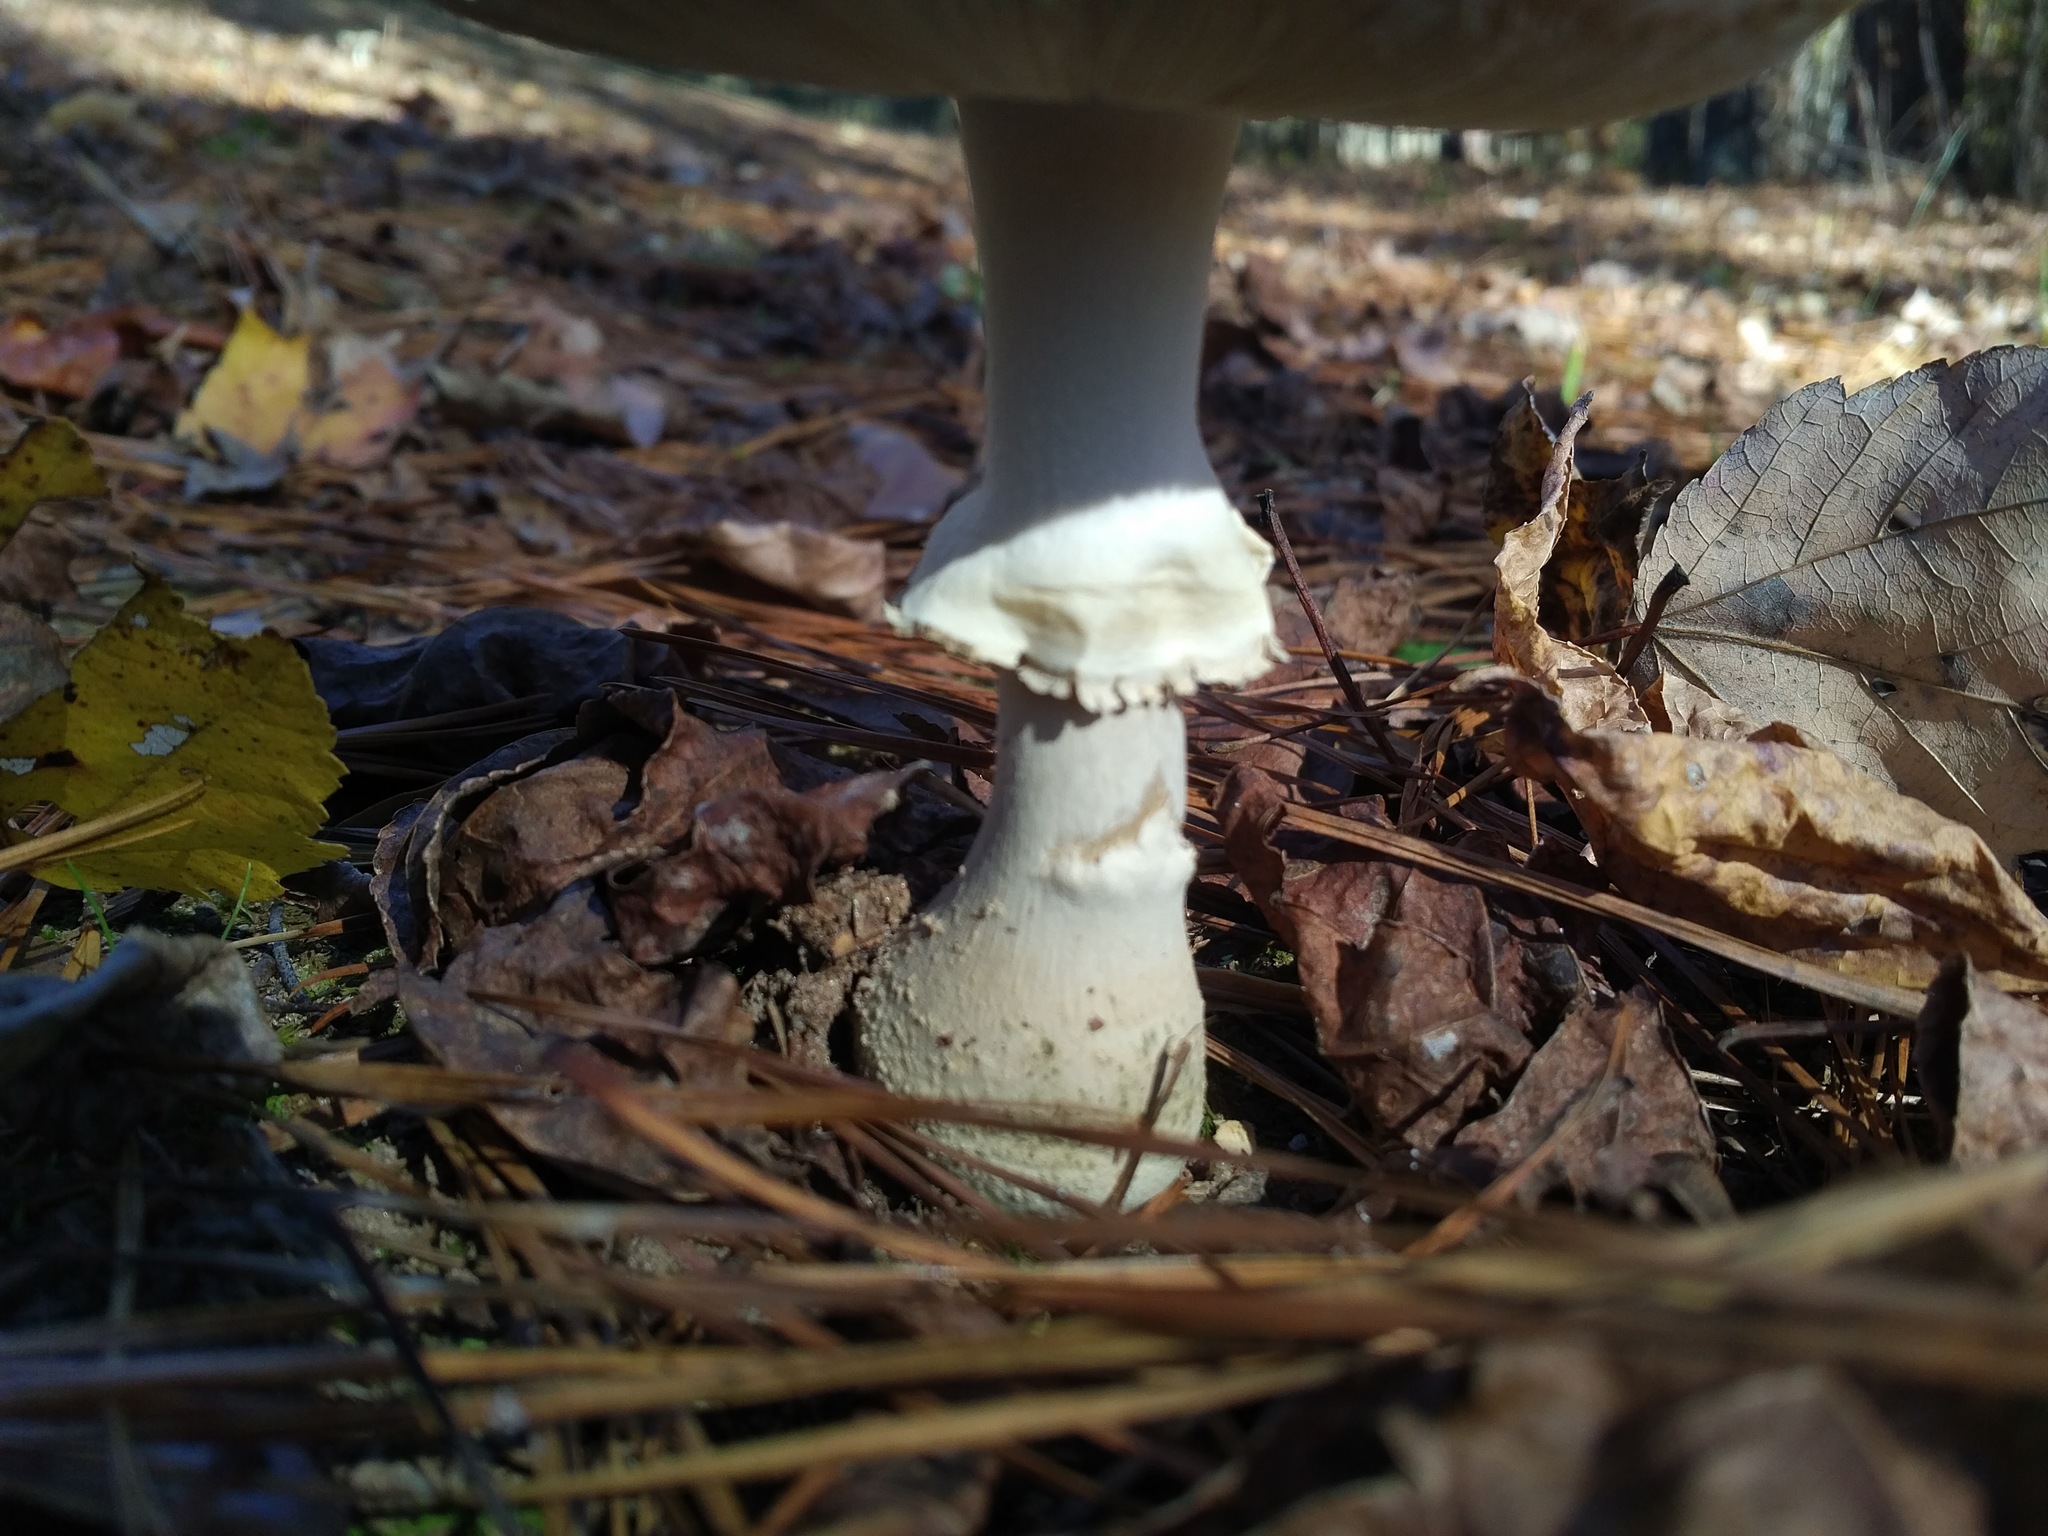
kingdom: Fungi
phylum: Basidiomycota
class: Agaricomycetes
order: Agaricales
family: Amanitaceae
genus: Amanita
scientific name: Amanita persicina
